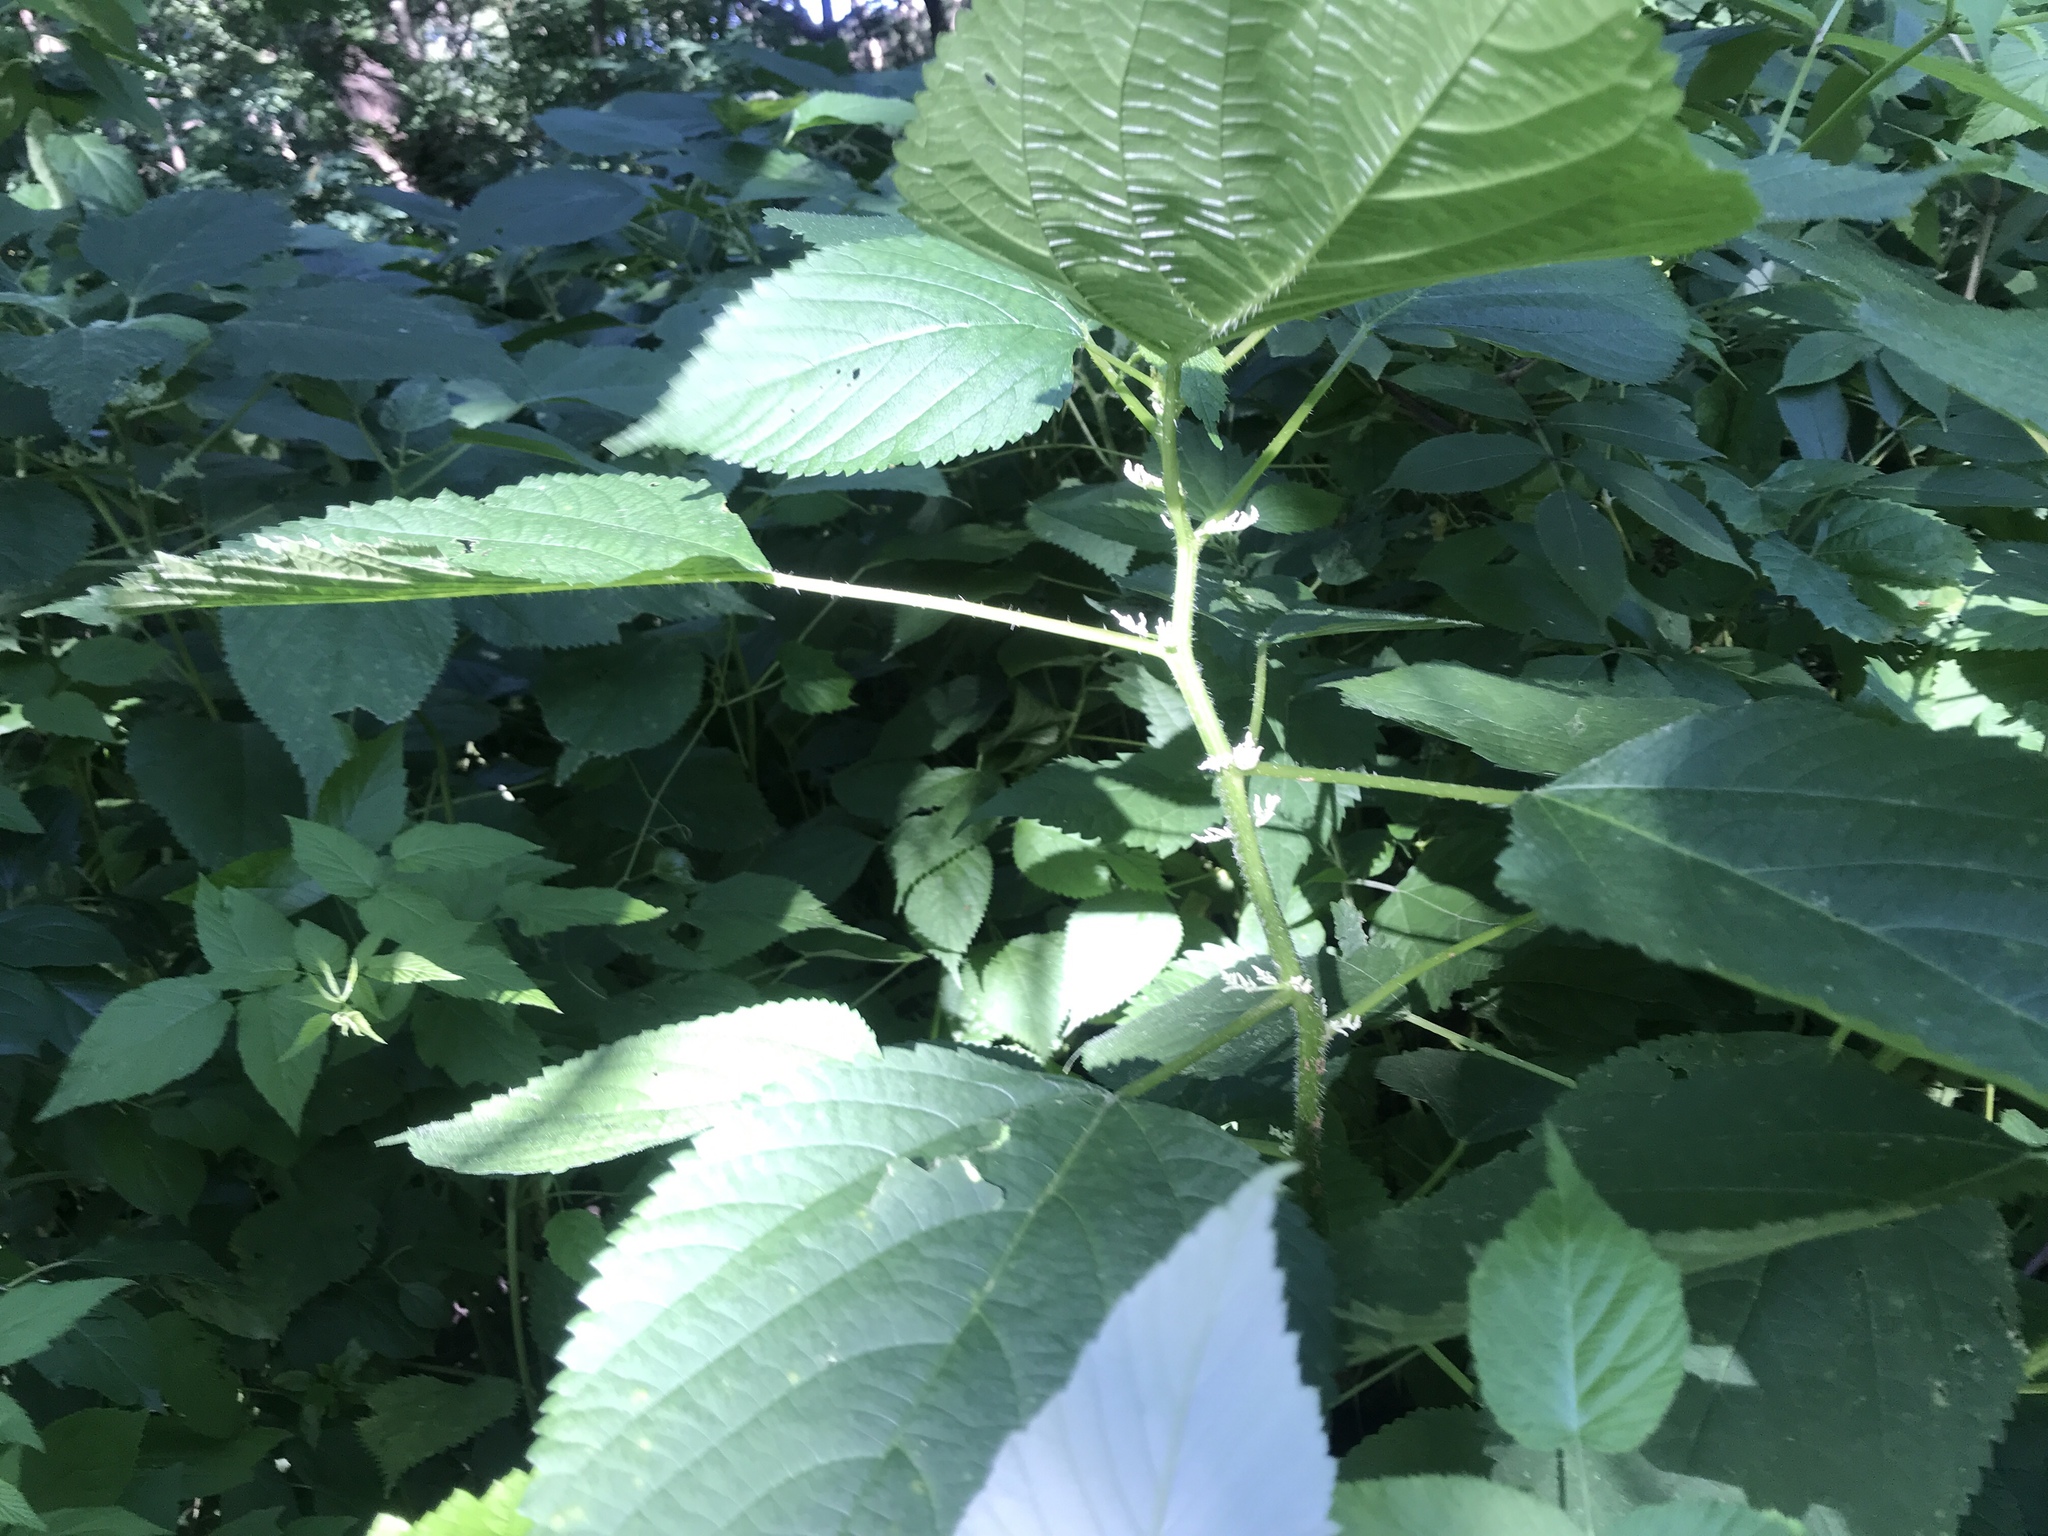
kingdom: Plantae
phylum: Tracheophyta
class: Magnoliopsida
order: Rosales
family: Urticaceae
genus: Laportea
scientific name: Laportea canadensis
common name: Canada nettle
